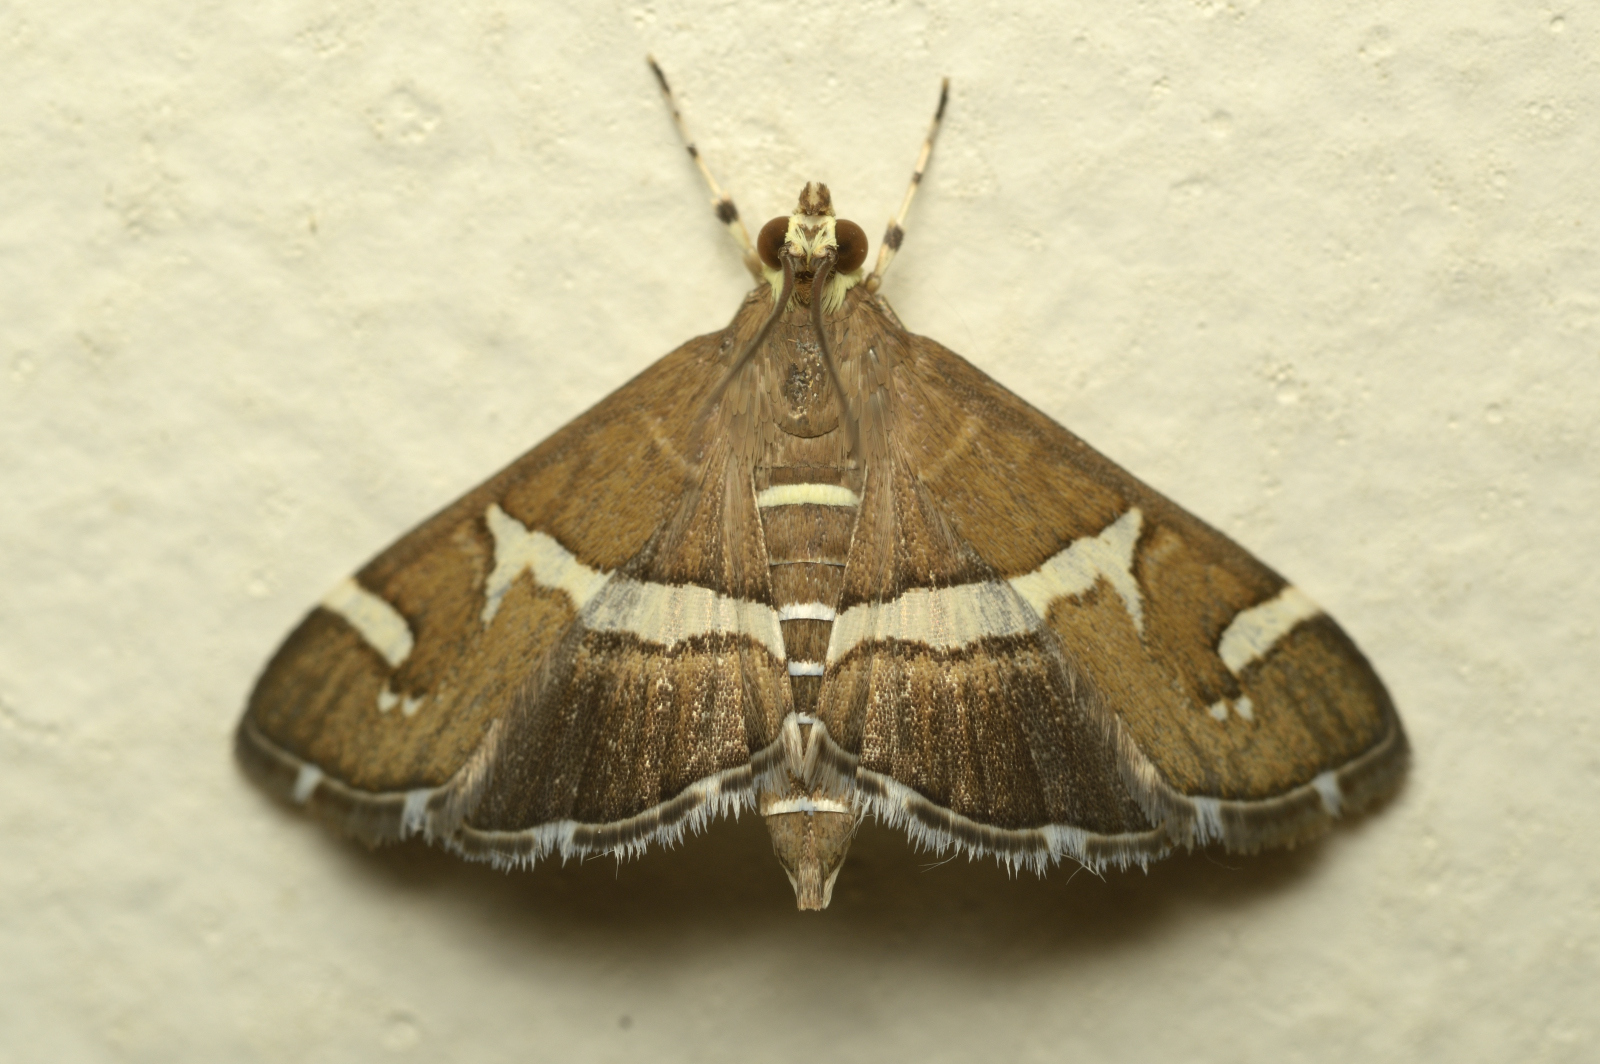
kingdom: Animalia
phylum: Arthropoda
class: Insecta
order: Lepidoptera
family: Crambidae
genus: Spoladea
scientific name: Spoladea recurvalis
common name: Beet webworm moth
